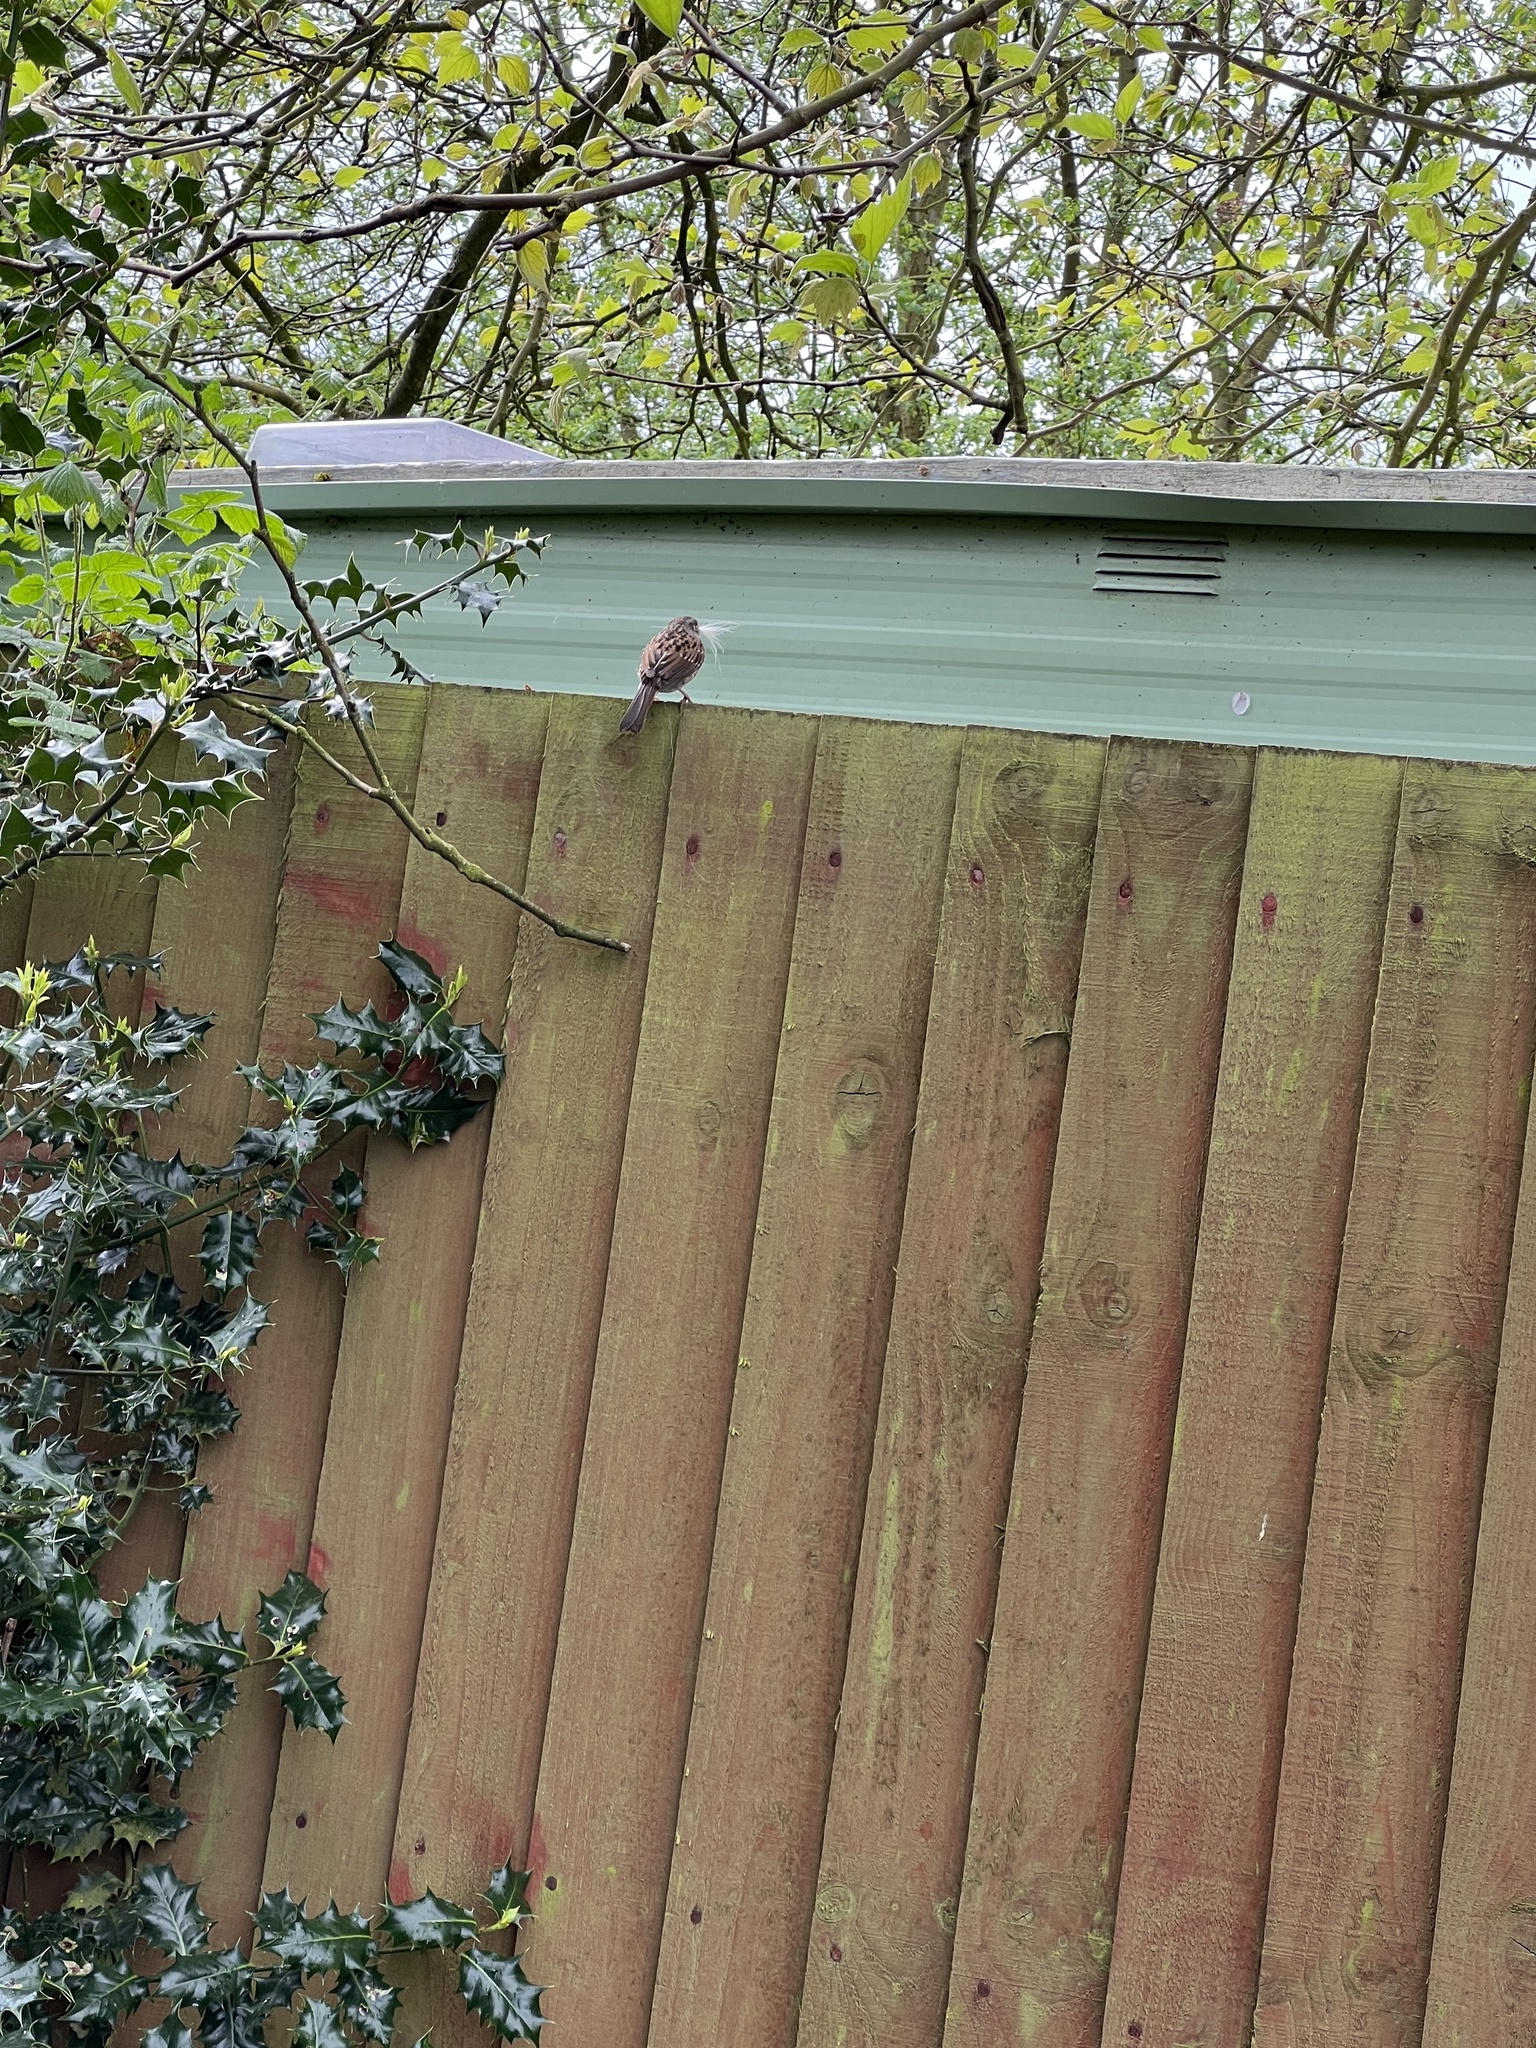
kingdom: Animalia
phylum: Chordata
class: Aves
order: Passeriformes
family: Prunellidae
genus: Prunella
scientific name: Prunella modularis
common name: Dunnock
